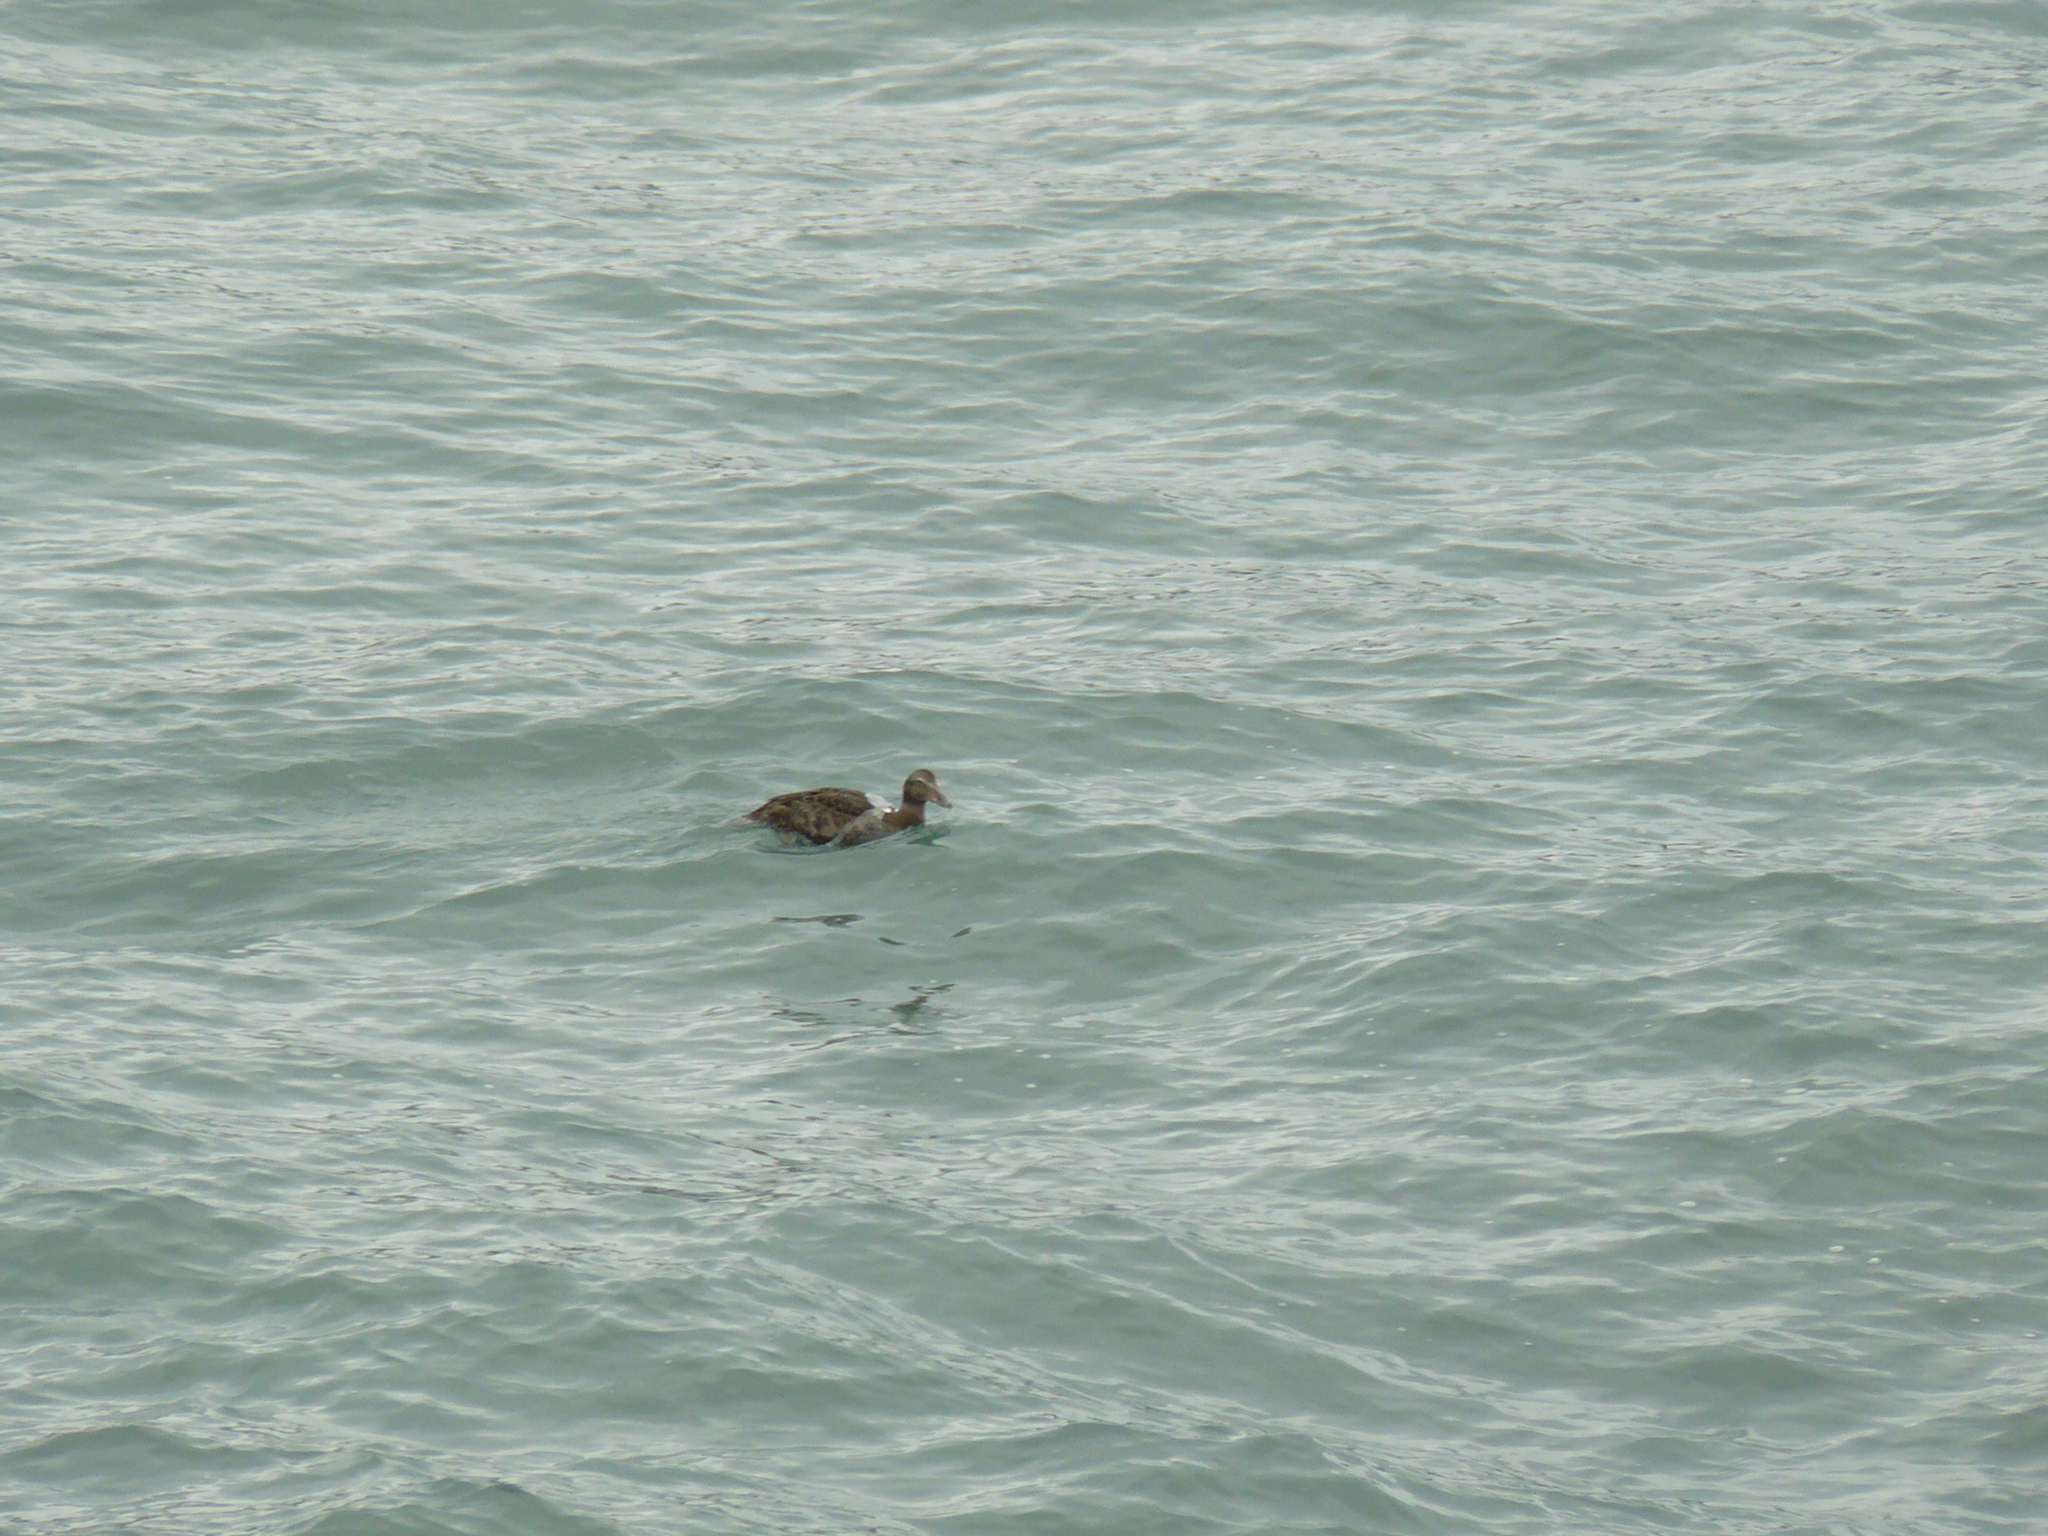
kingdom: Animalia
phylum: Chordata
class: Aves
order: Anseriformes
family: Anatidae
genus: Somateria
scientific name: Somateria mollissima
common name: Common eider
